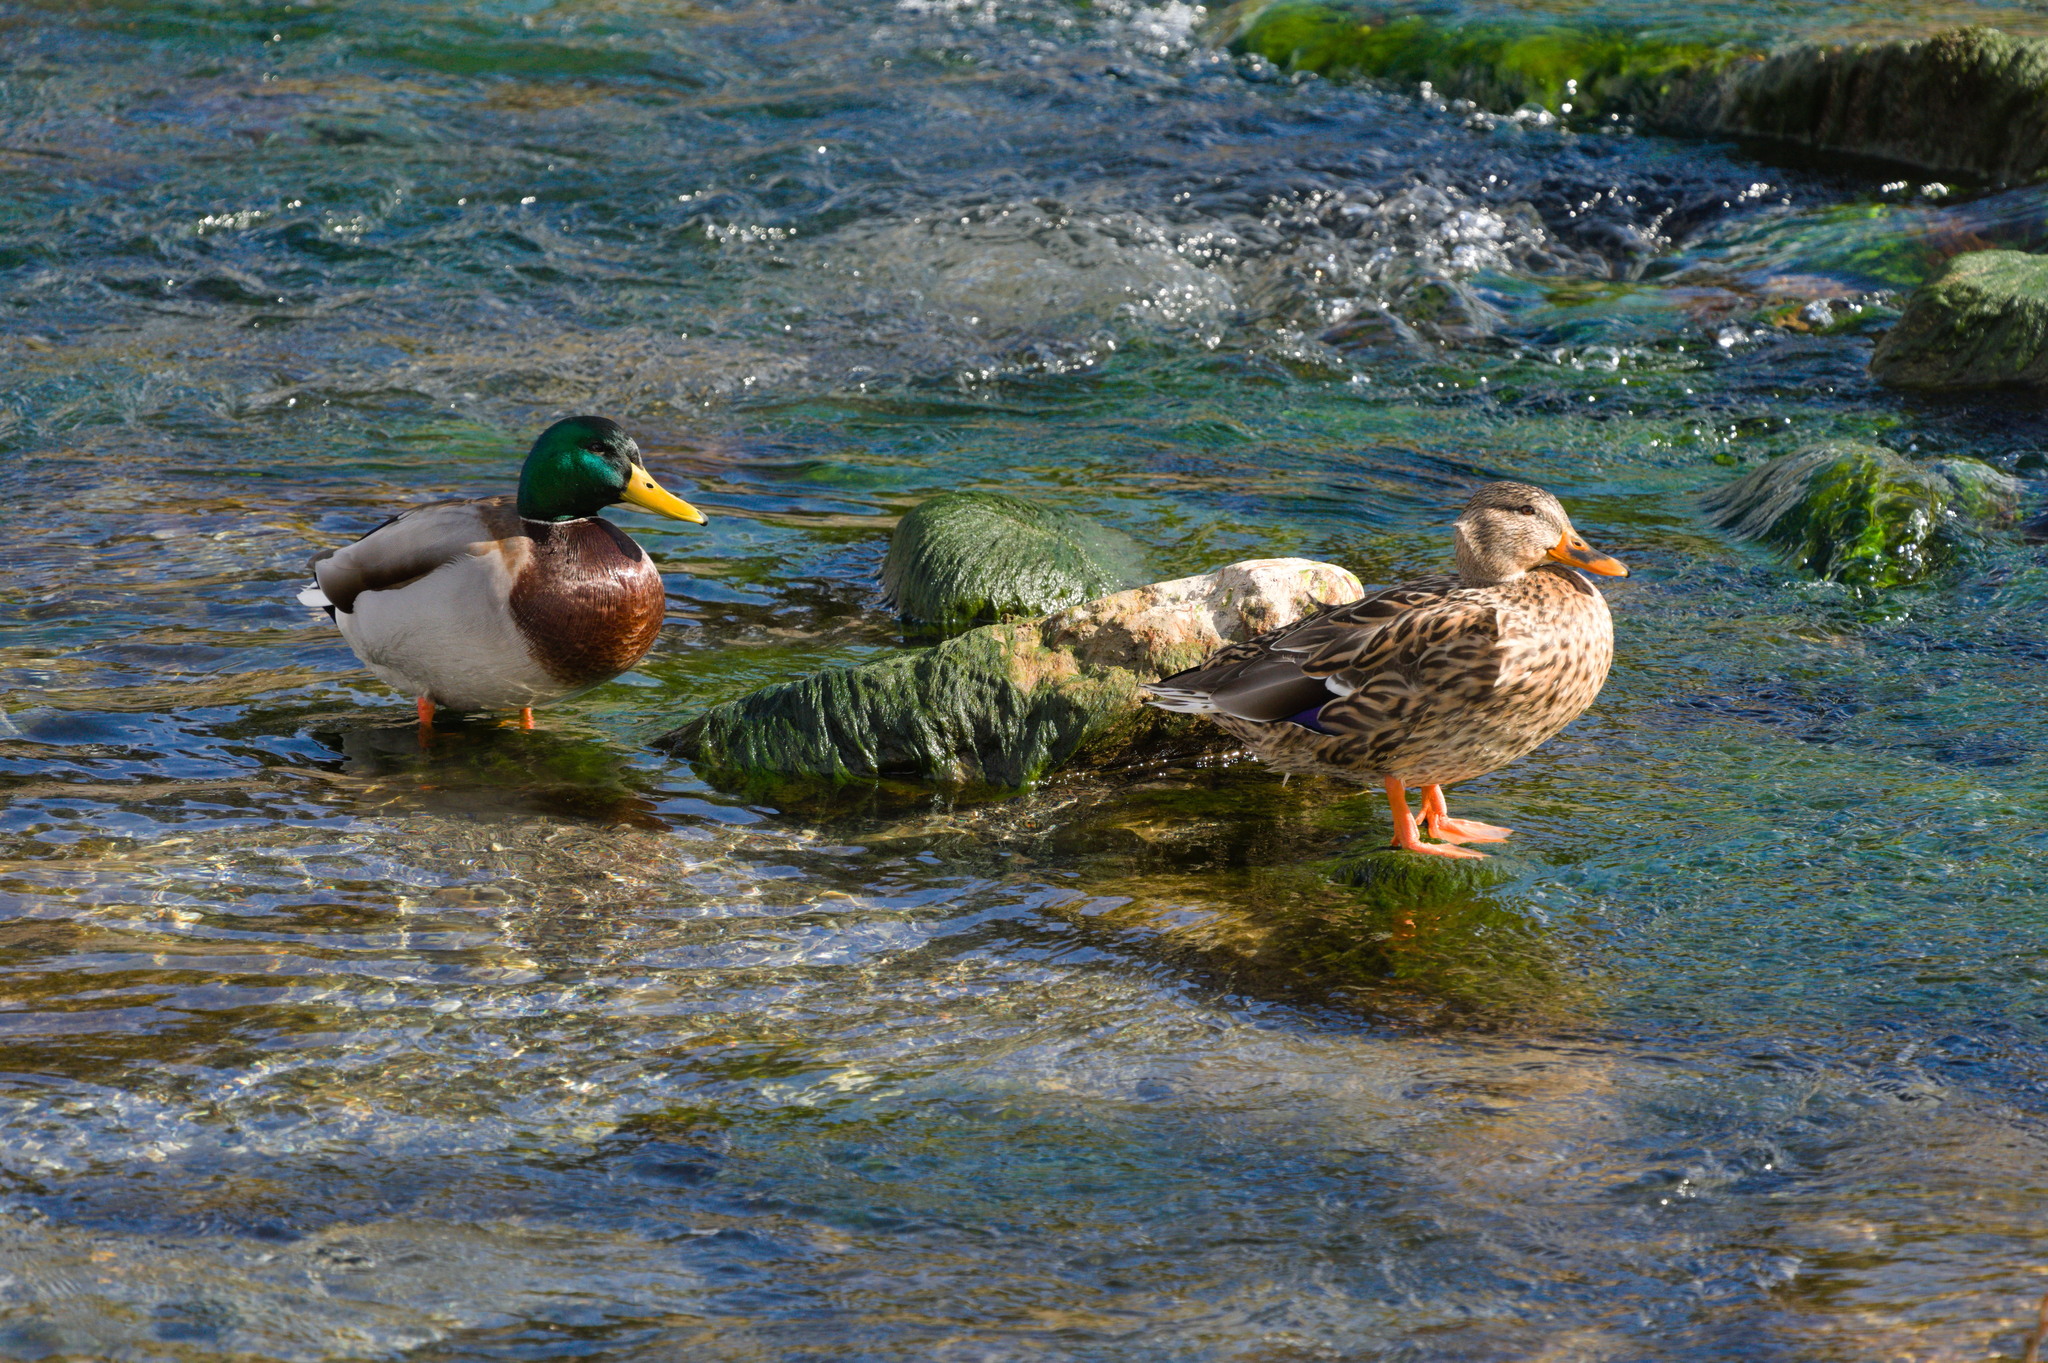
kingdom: Animalia
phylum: Chordata
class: Aves
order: Anseriformes
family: Anatidae
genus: Anas
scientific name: Anas platyrhynchos
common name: Mallard
